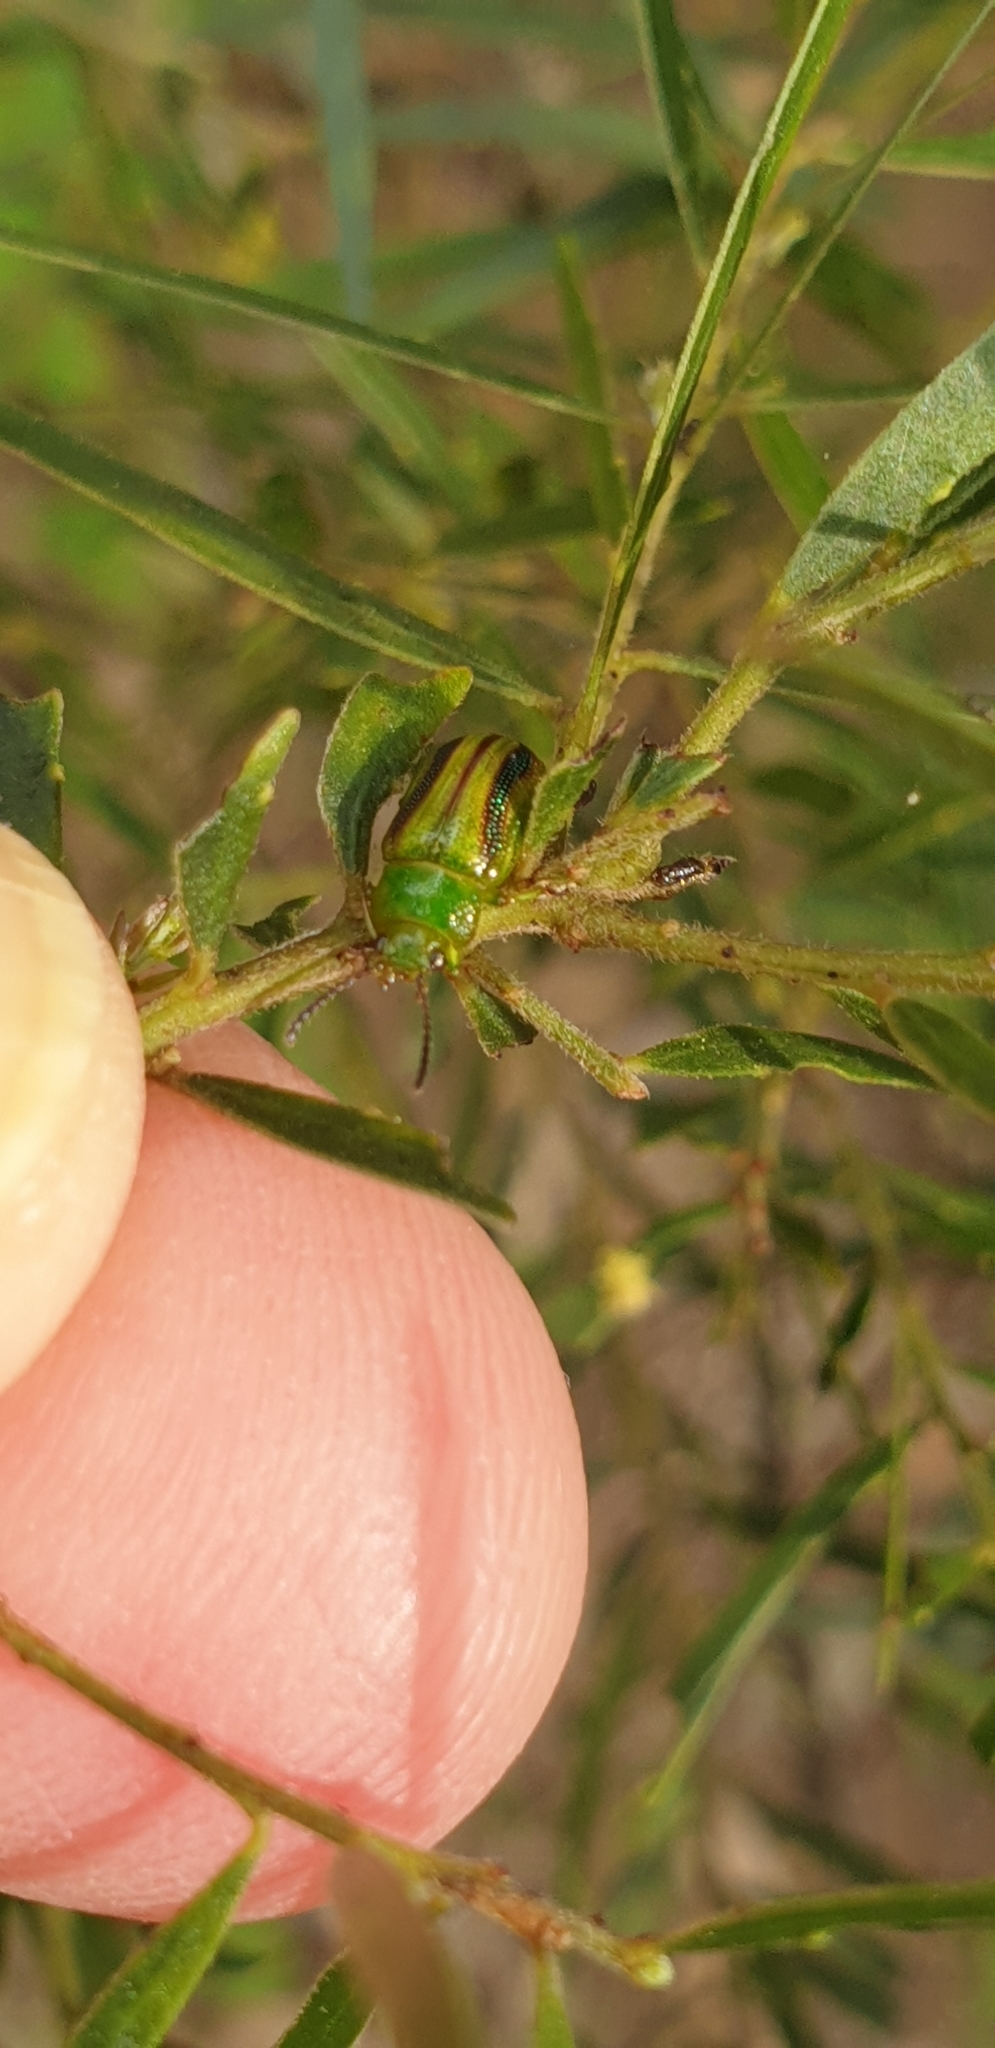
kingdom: Animalia
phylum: Arthropoda
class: Insecta
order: Coleoptera
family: Chrysomelidae
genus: Calomela
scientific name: Calomela
